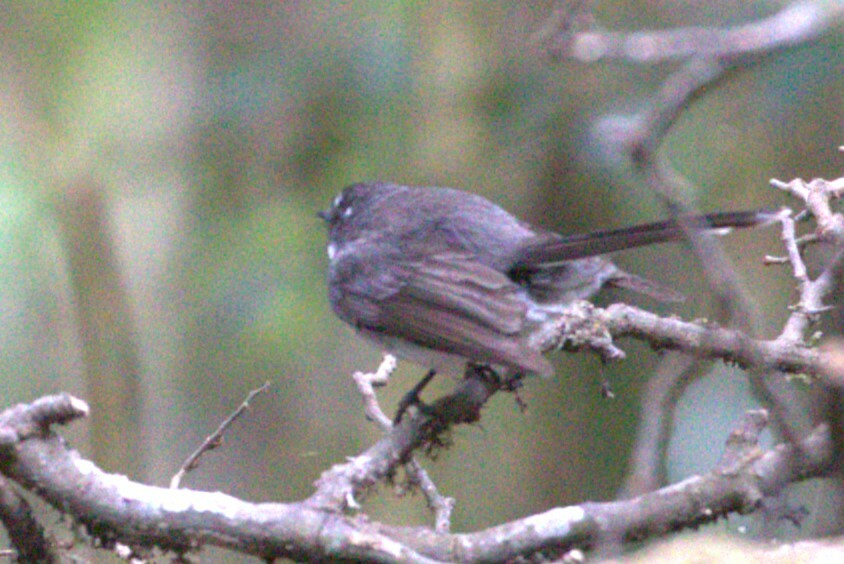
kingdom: Animalia
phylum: Chordata
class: Aves
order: Passeriformes
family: Rhipiduridae
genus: Rhipidura
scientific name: Rhipidura albiscapa
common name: Grey fantail
